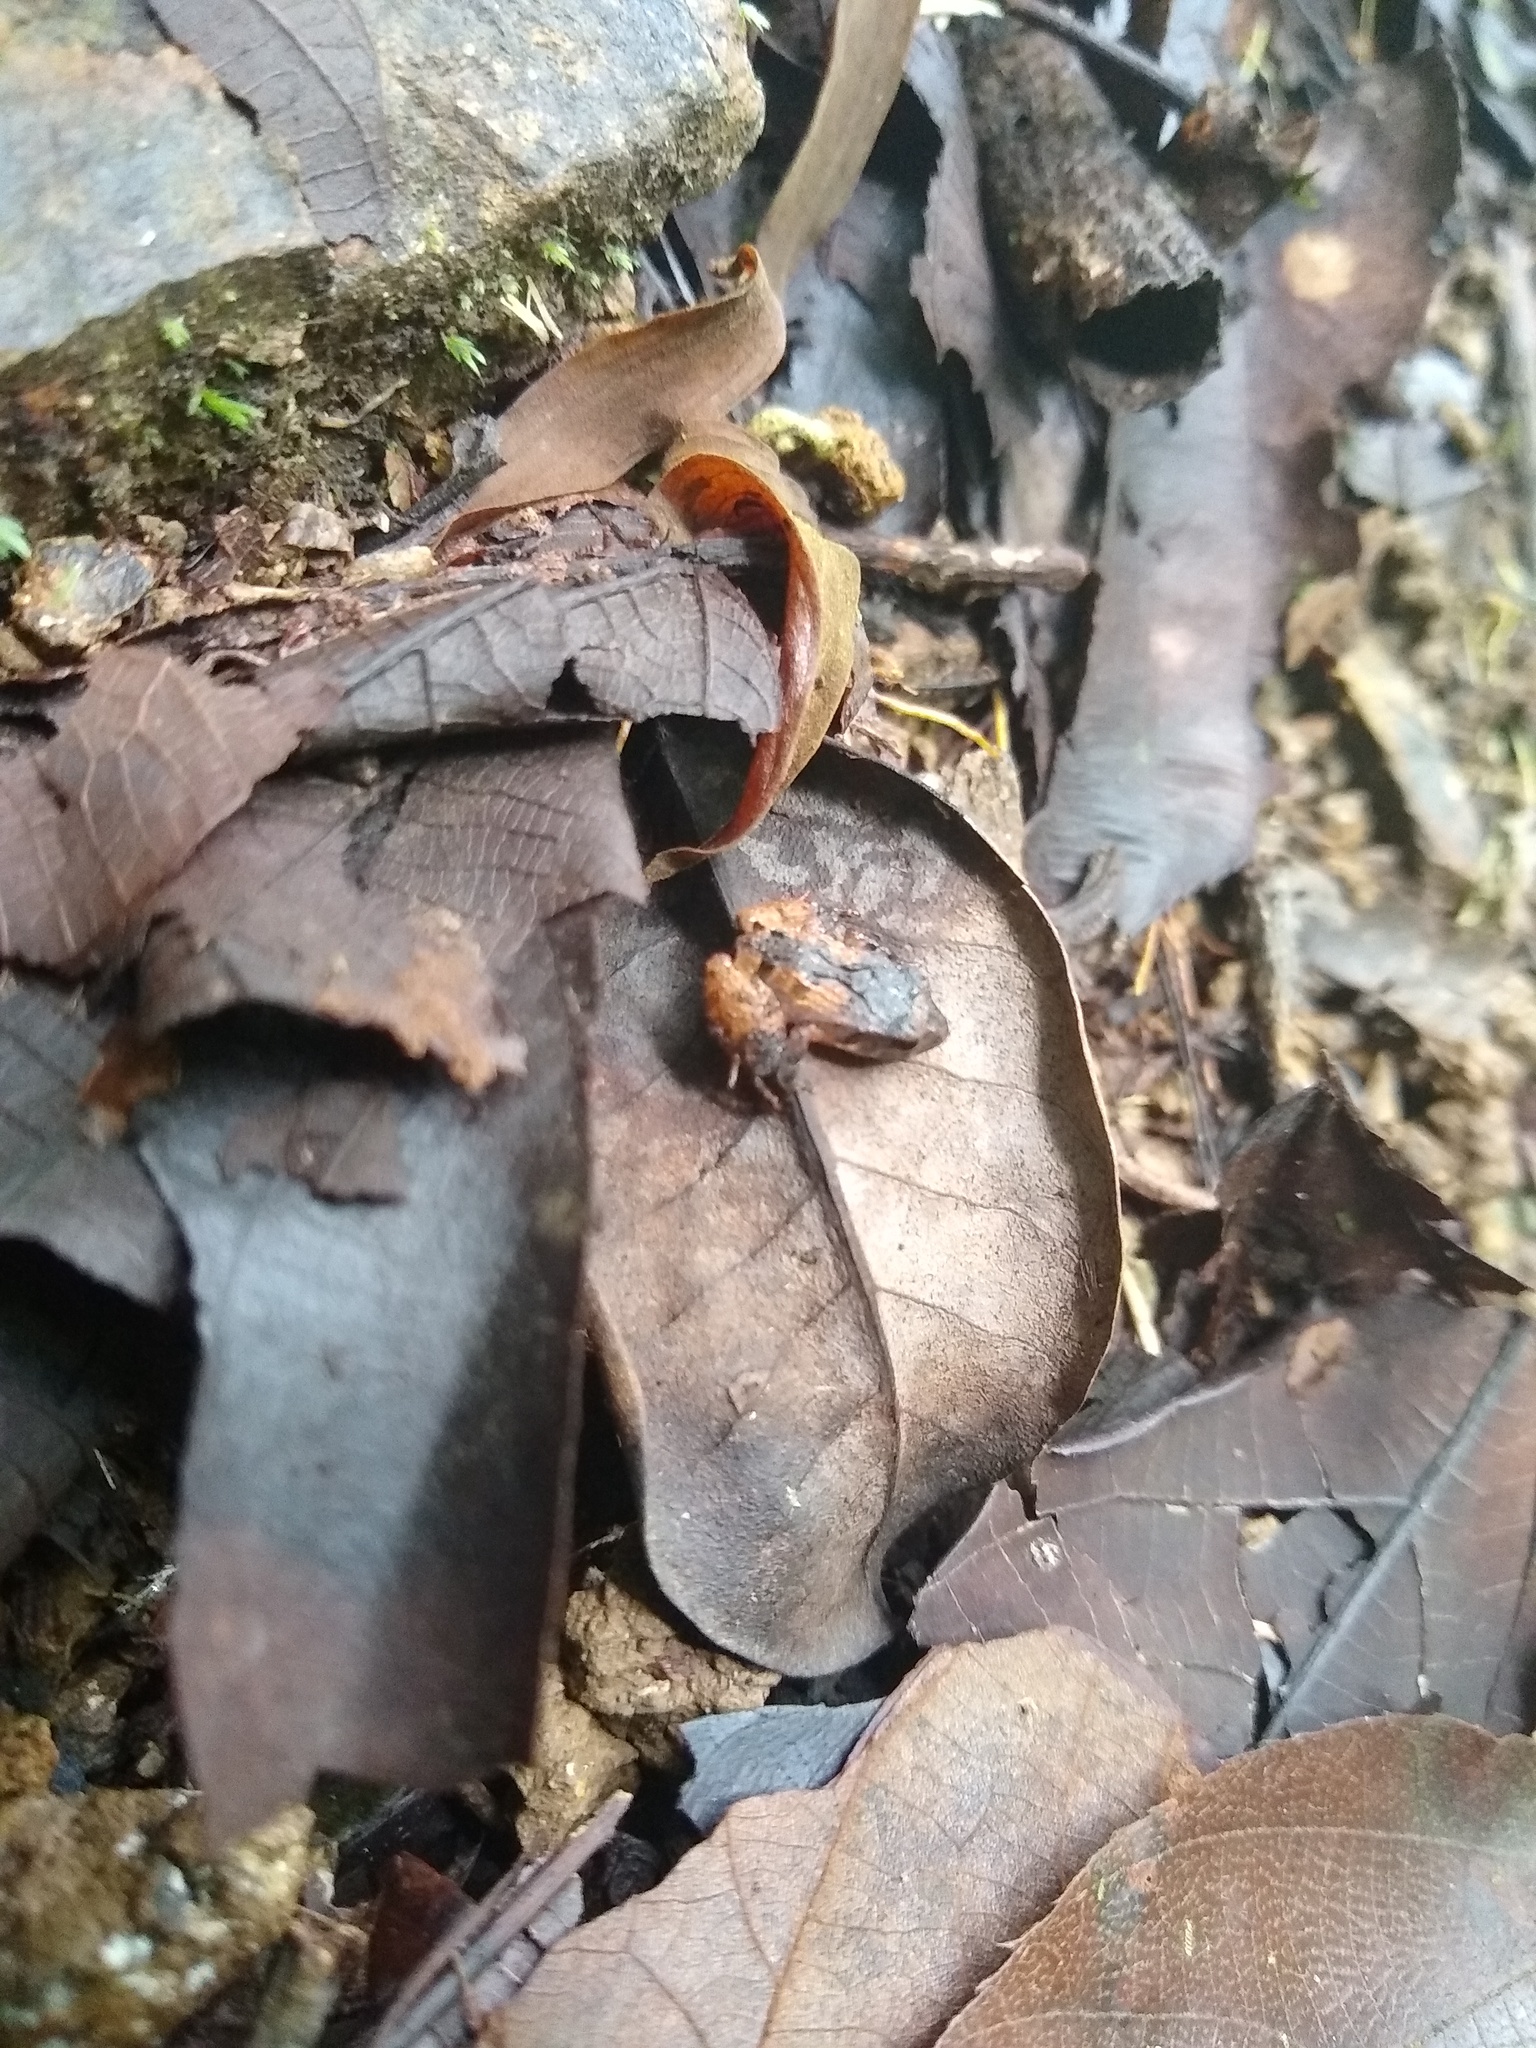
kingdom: Animalia
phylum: Chordata
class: Amphibia
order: Anura
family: Craugastoridae
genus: Craugastor
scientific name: Craugastor stejnegerianus
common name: Stejneger's robber frog
